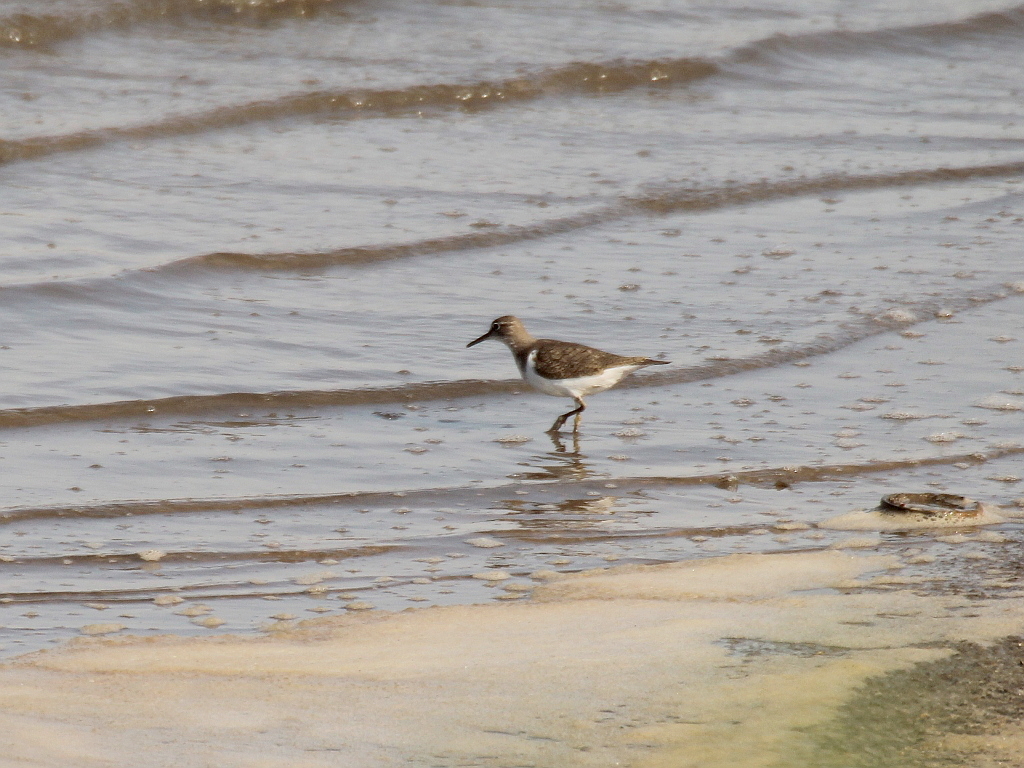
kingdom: Animalia
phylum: Chordata
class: Aves
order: Charadriiformes
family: Scolopacidae
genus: Actitis
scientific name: Actitis hypoleucos
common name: Common sandpiper
